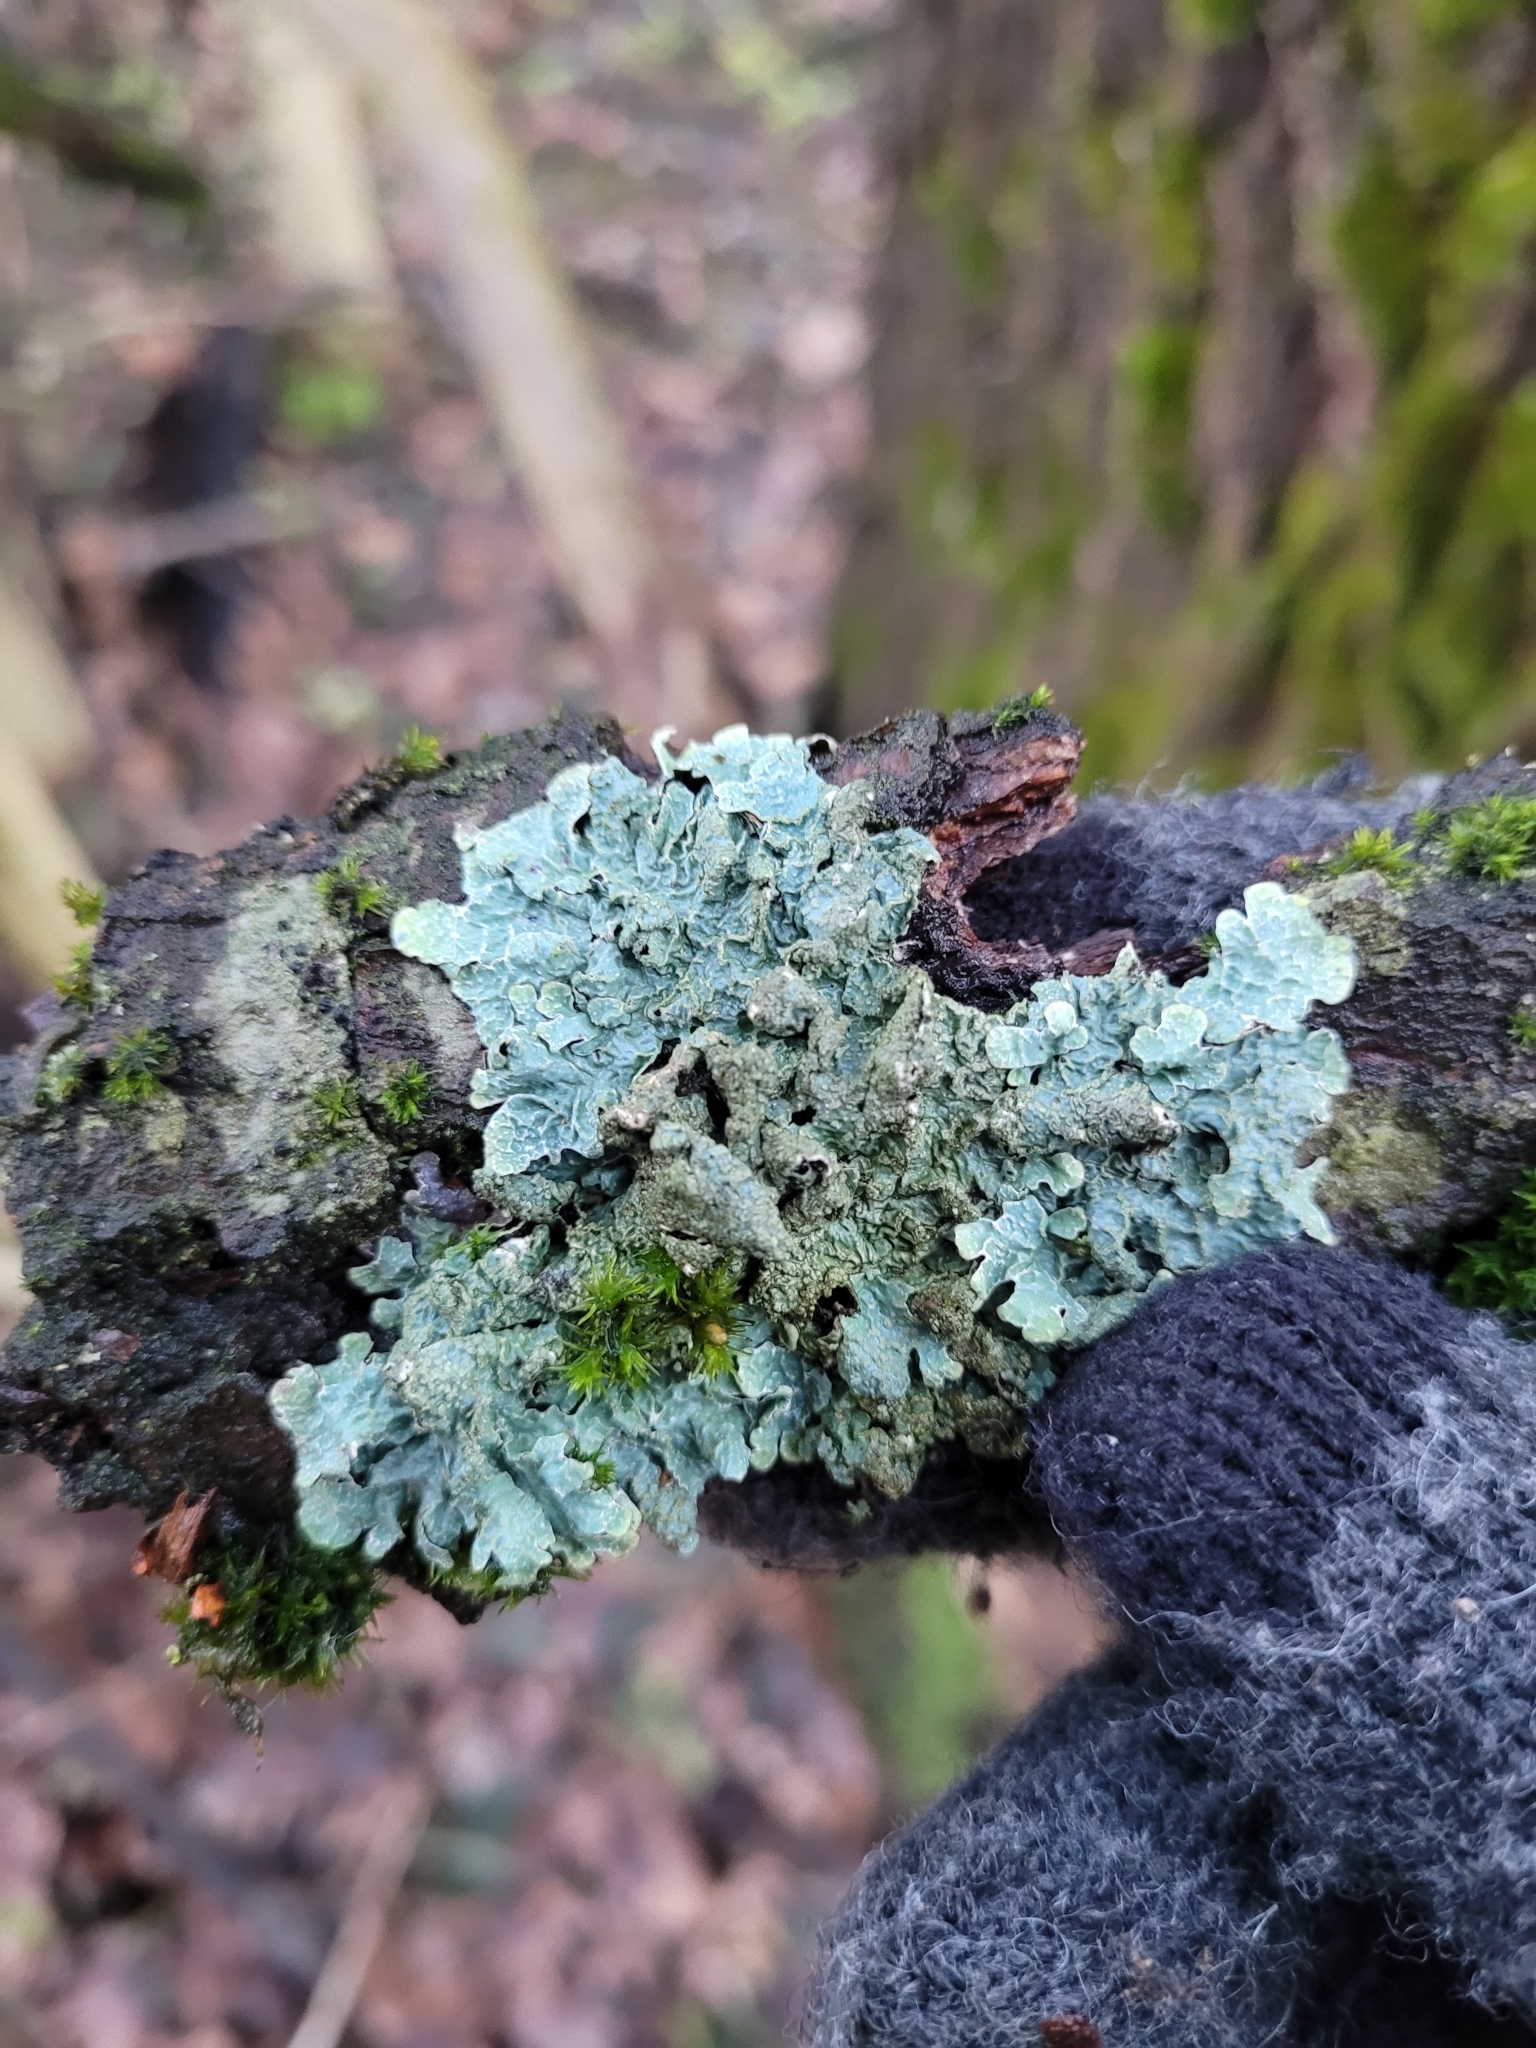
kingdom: Fungi
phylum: Ascomycota
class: Lecanoromycetes
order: Lecanorales
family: Parmeliaceae
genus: Parmelia
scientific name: Parmelia sulcata
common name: Netted shield lichen
